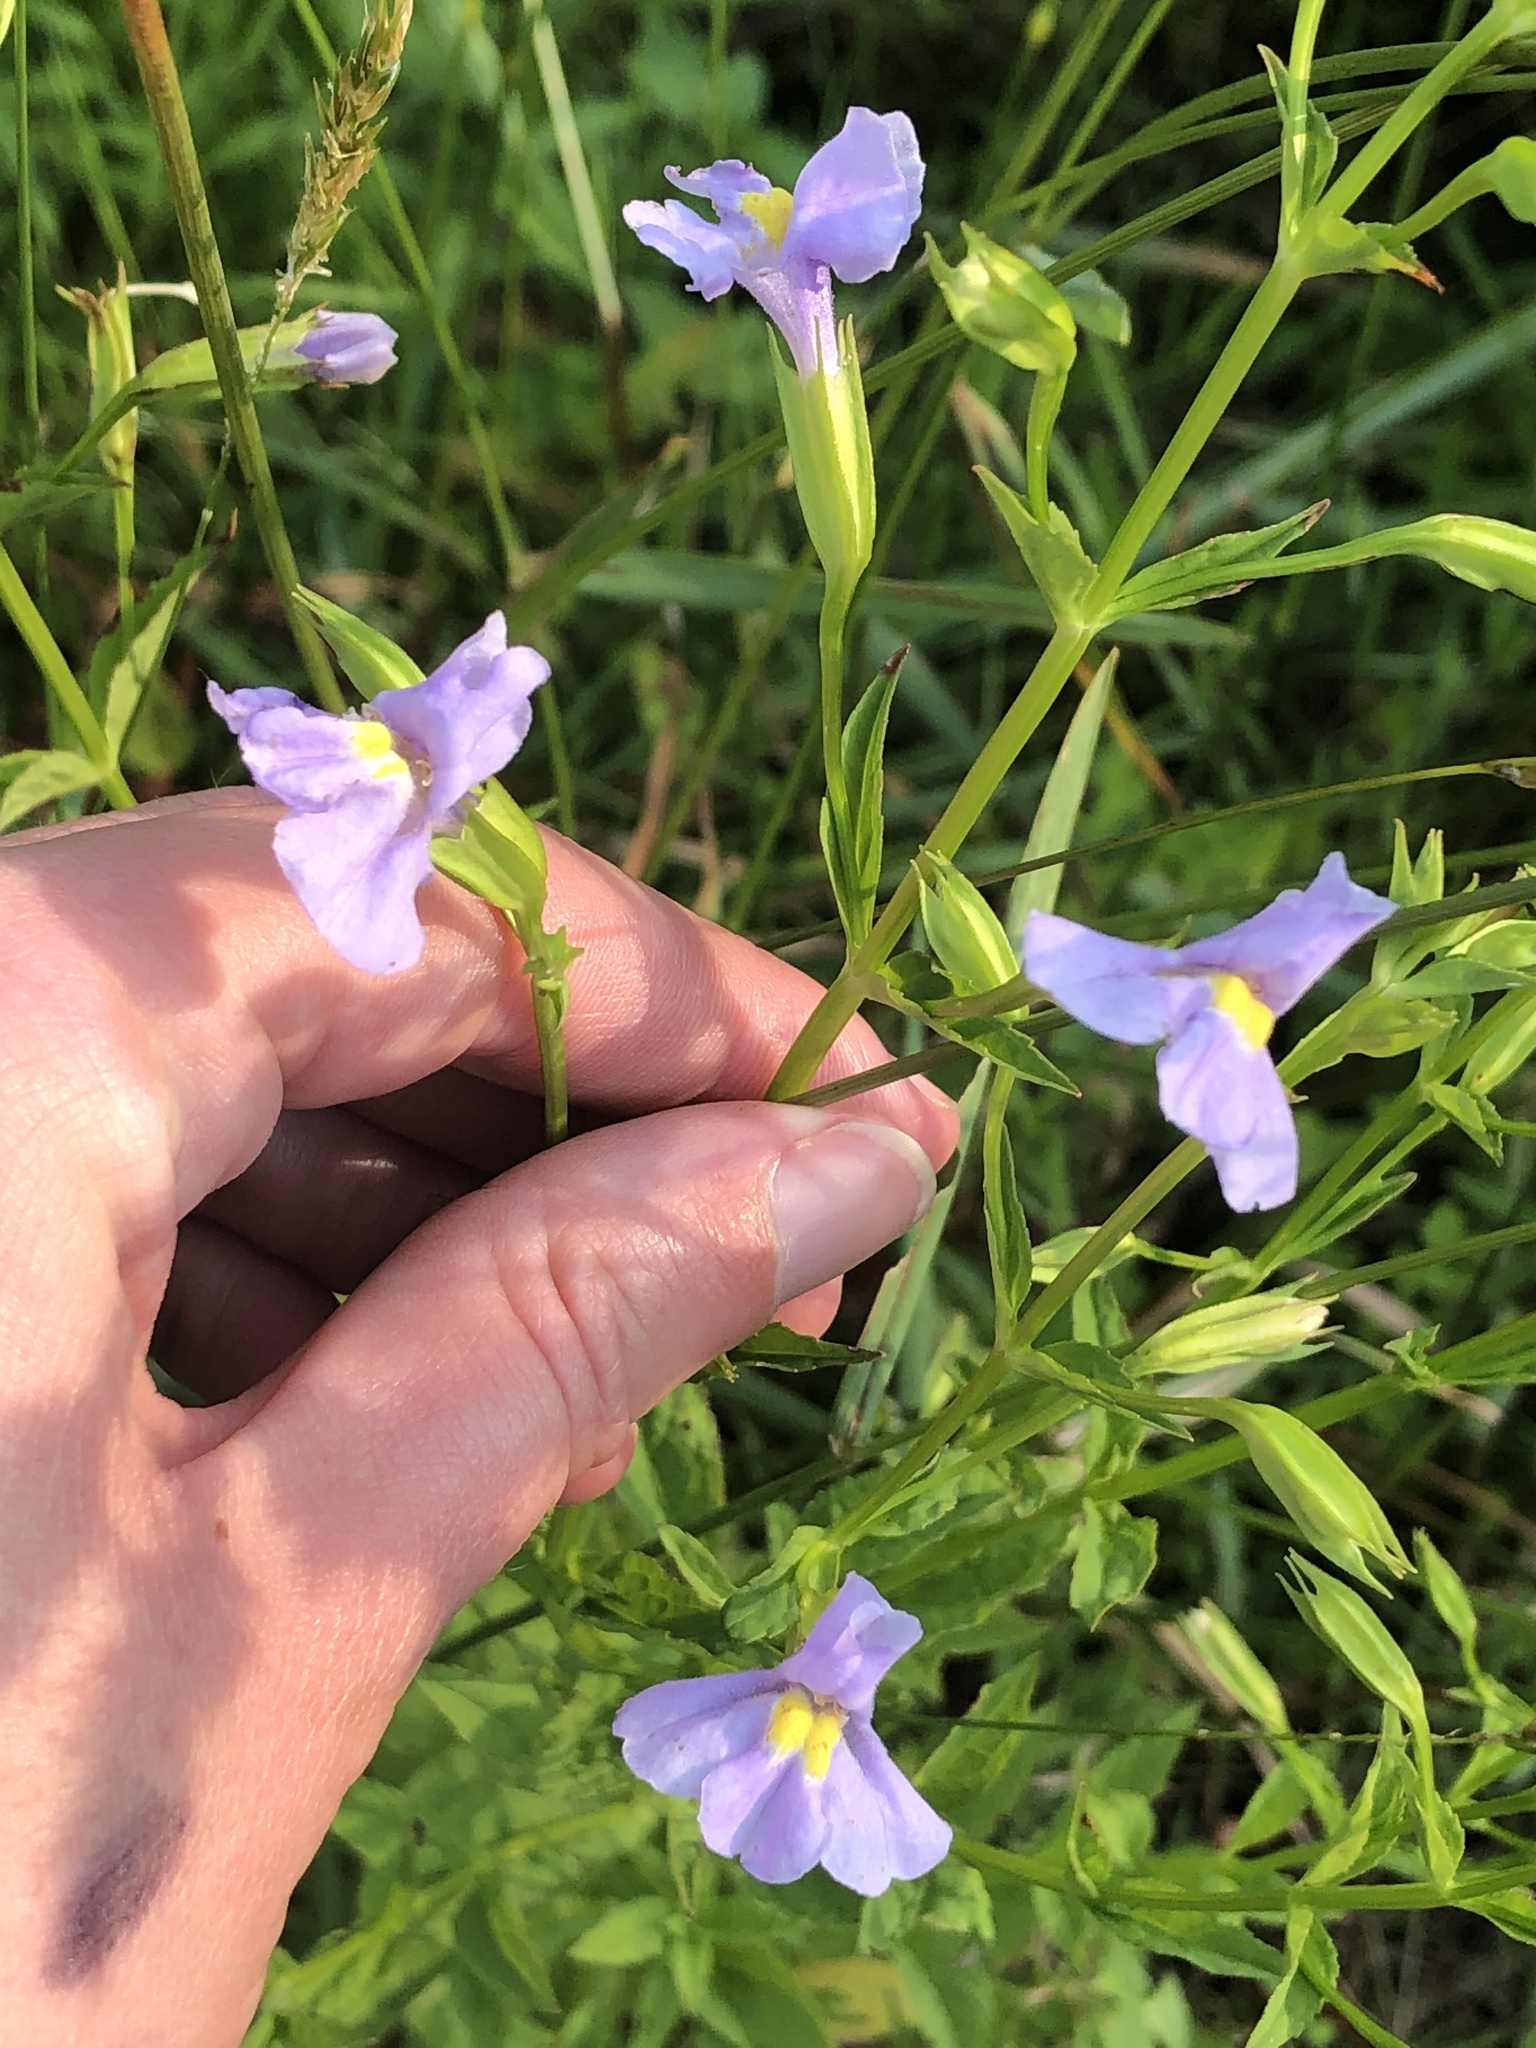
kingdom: Plantae
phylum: Tracheophyta
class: Magnoliopsida
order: Lamiales
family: Phrymaceae
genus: Mimulus
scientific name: Mimulus ringens
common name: Allegheny monkeyflower
